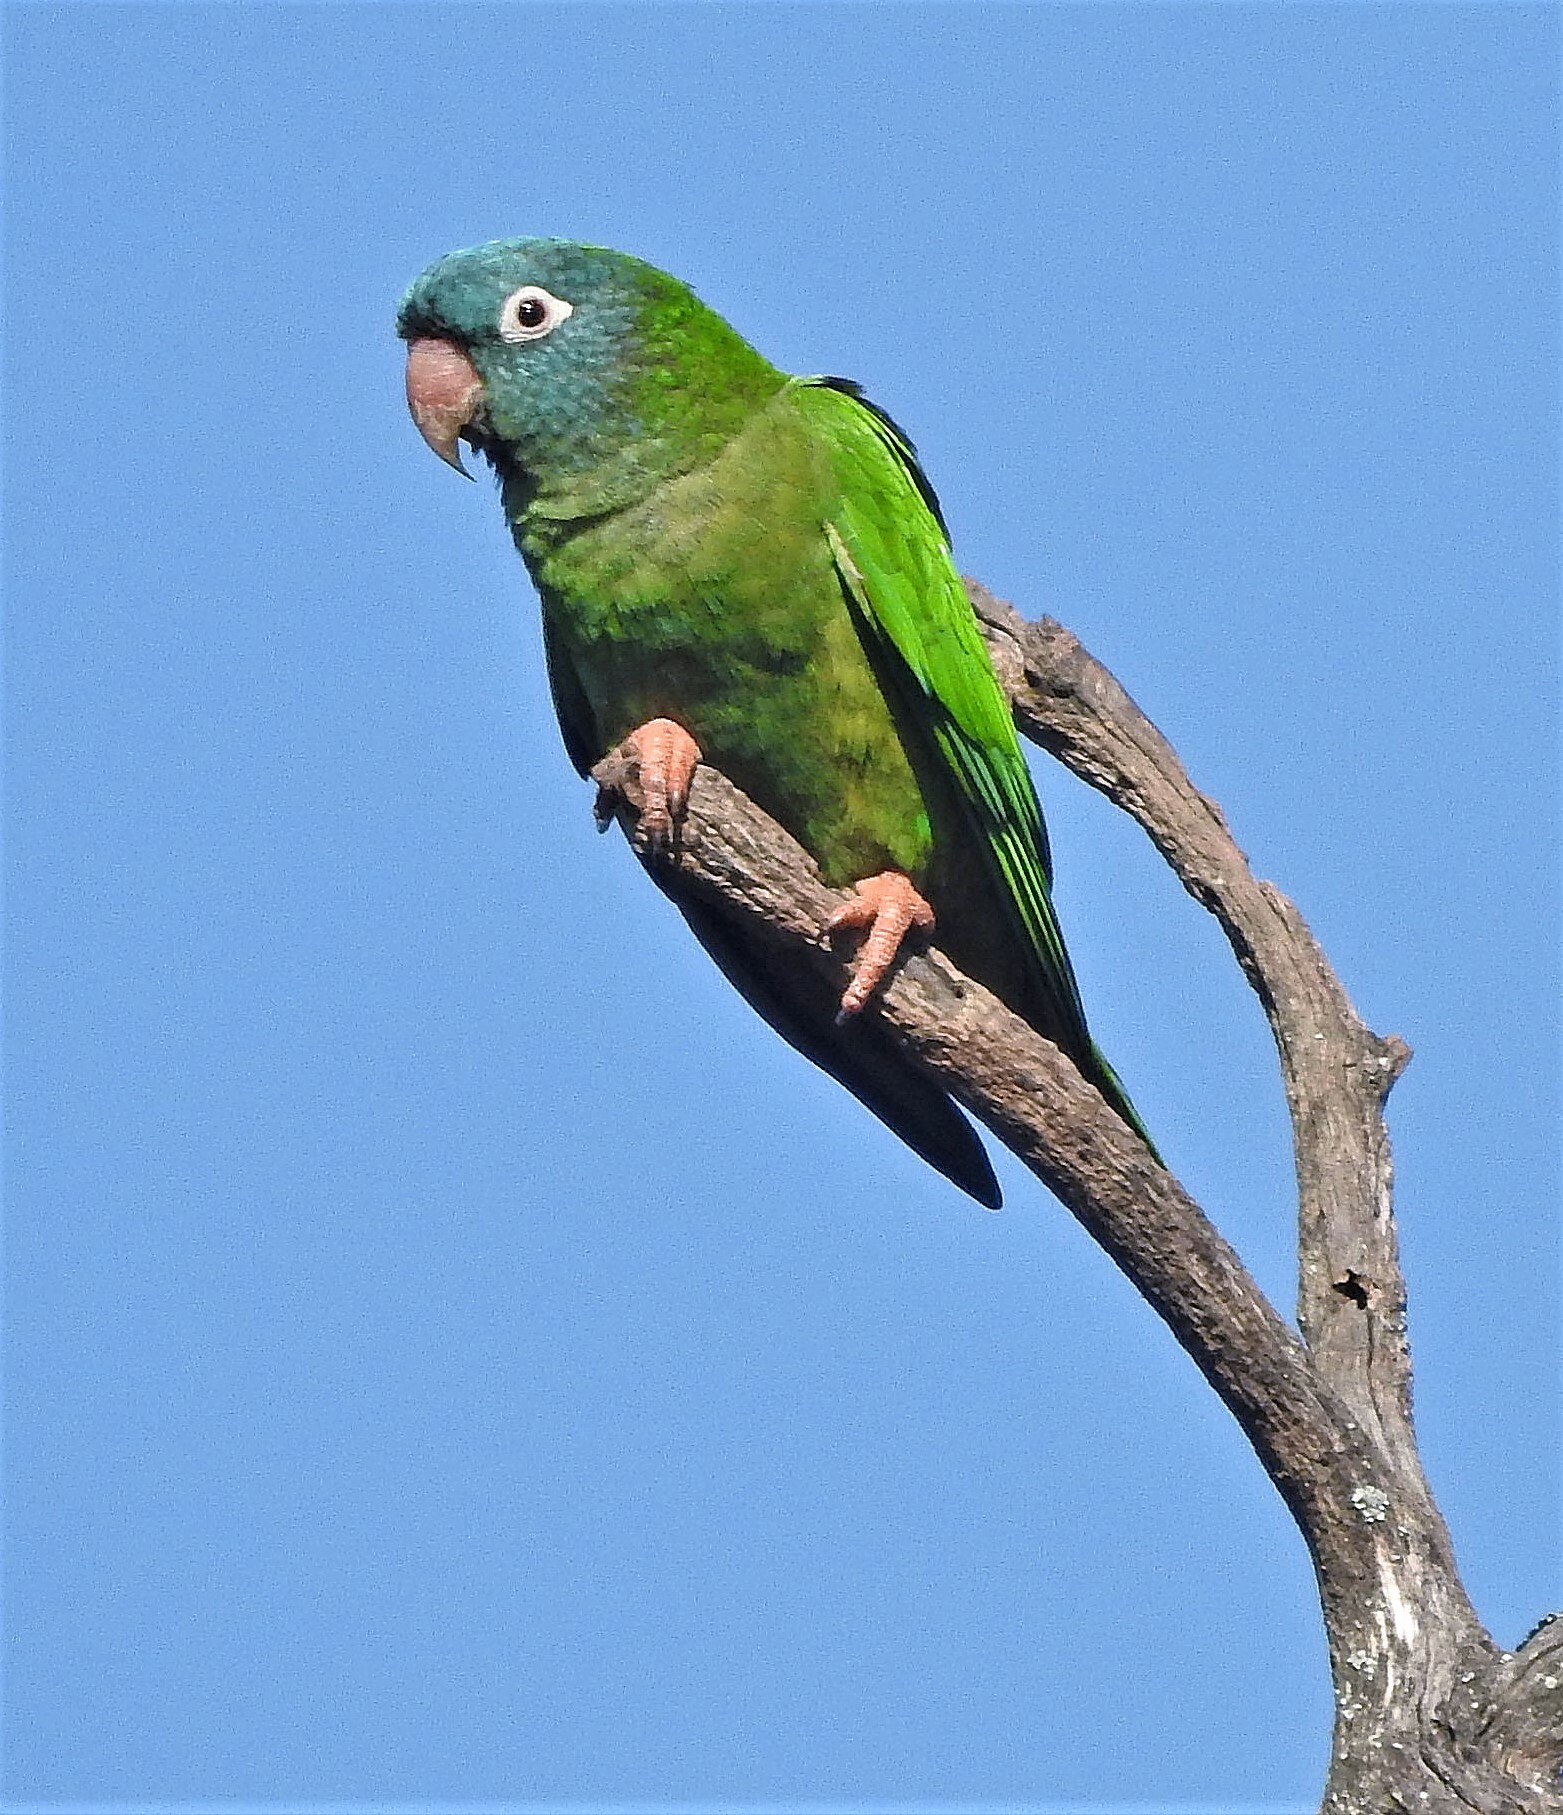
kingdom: Animalia
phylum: Chordata
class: Aves
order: Psittaciformes
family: Psittacidae
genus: Aratinga
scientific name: Aratinga acuticaudata
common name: Blue-crowned parakeet
